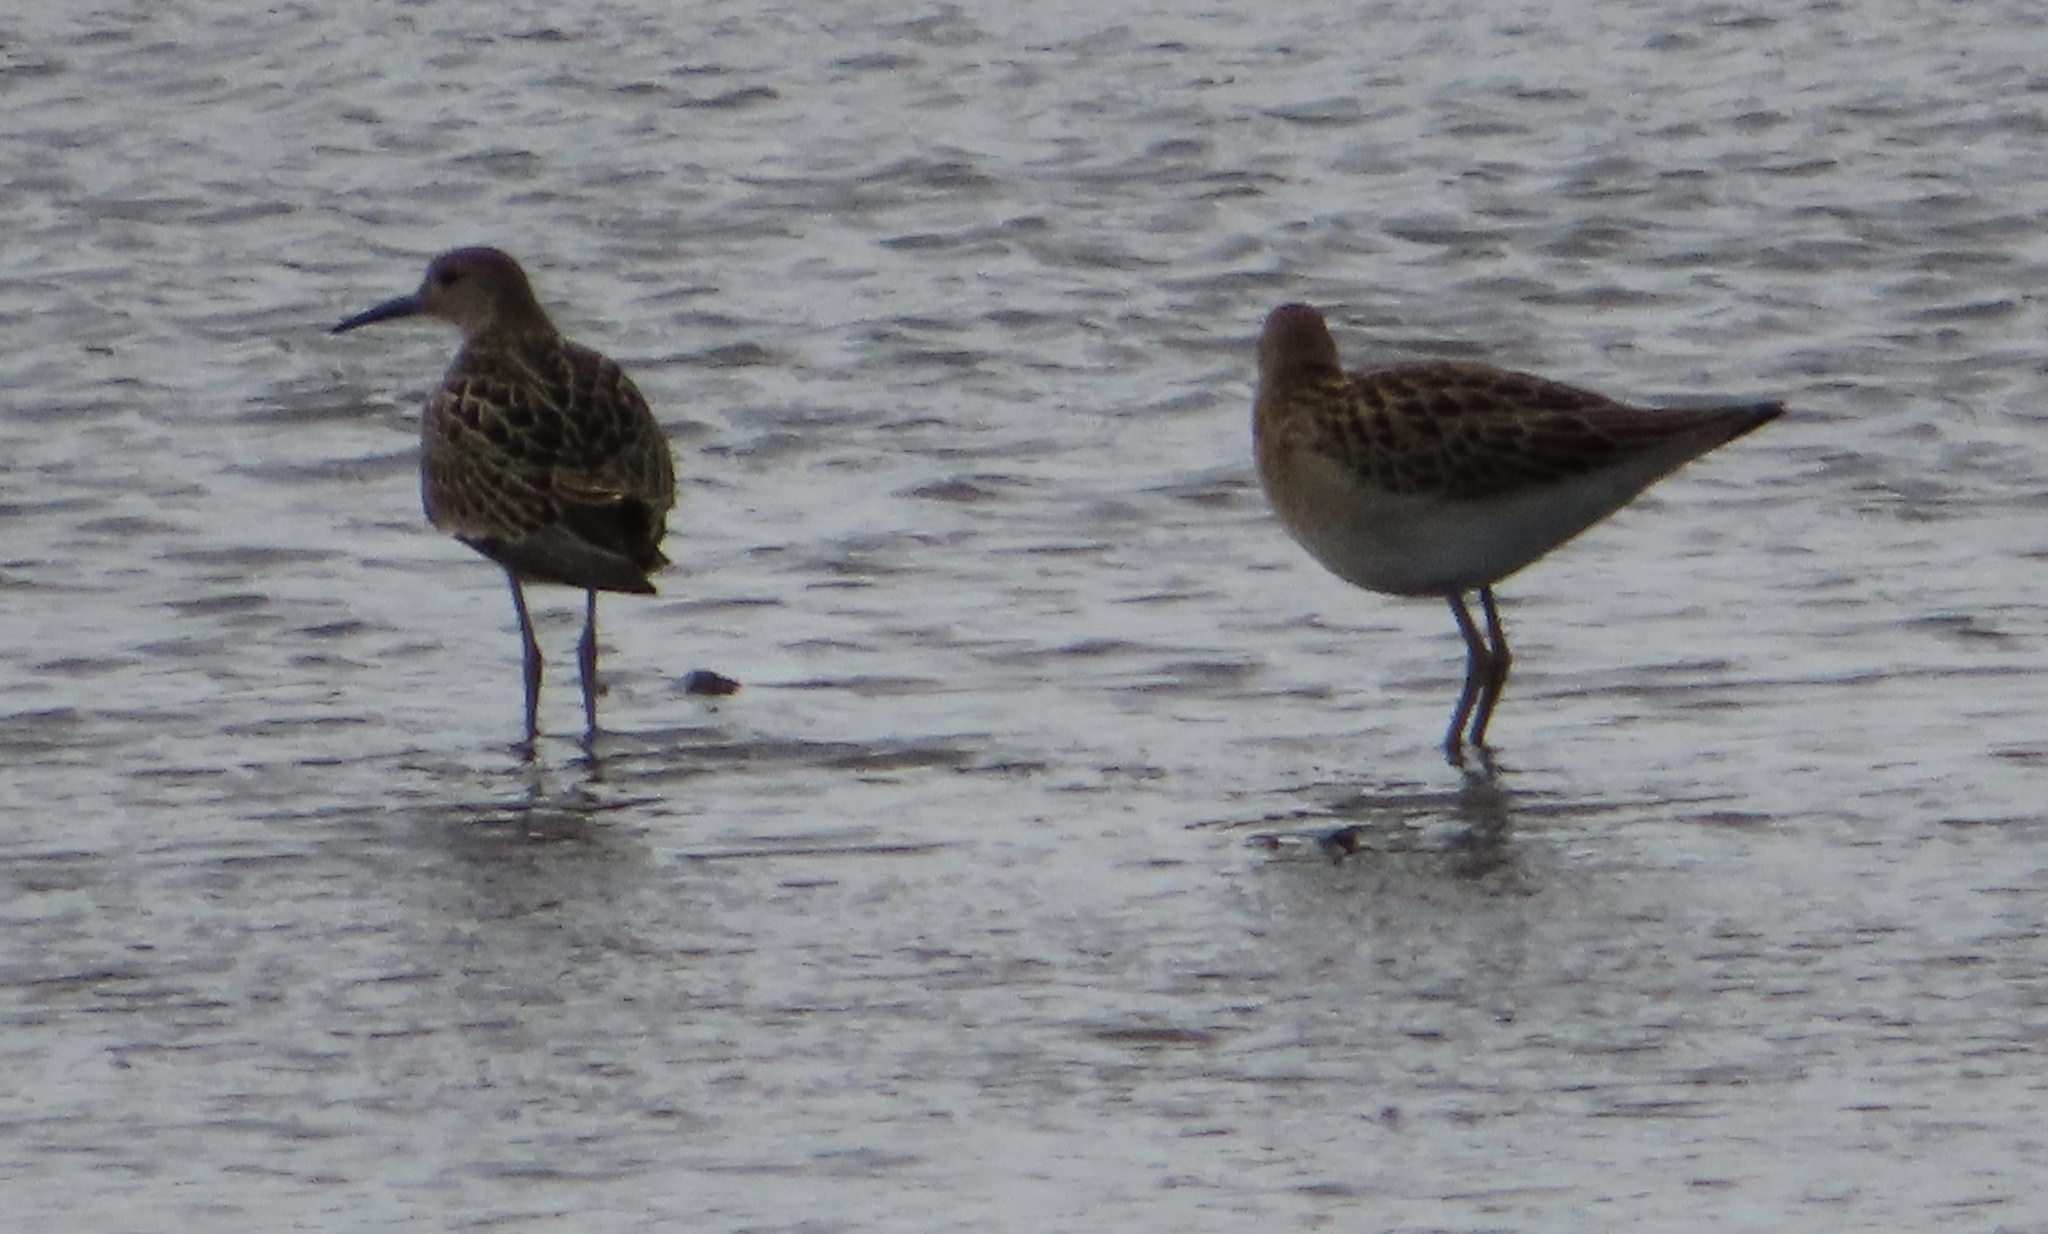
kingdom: Animalia
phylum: Chordata
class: Aves
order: Charadriiformes
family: Scolopacidae
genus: Calidris
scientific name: Calidris pugnax
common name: Ruff
